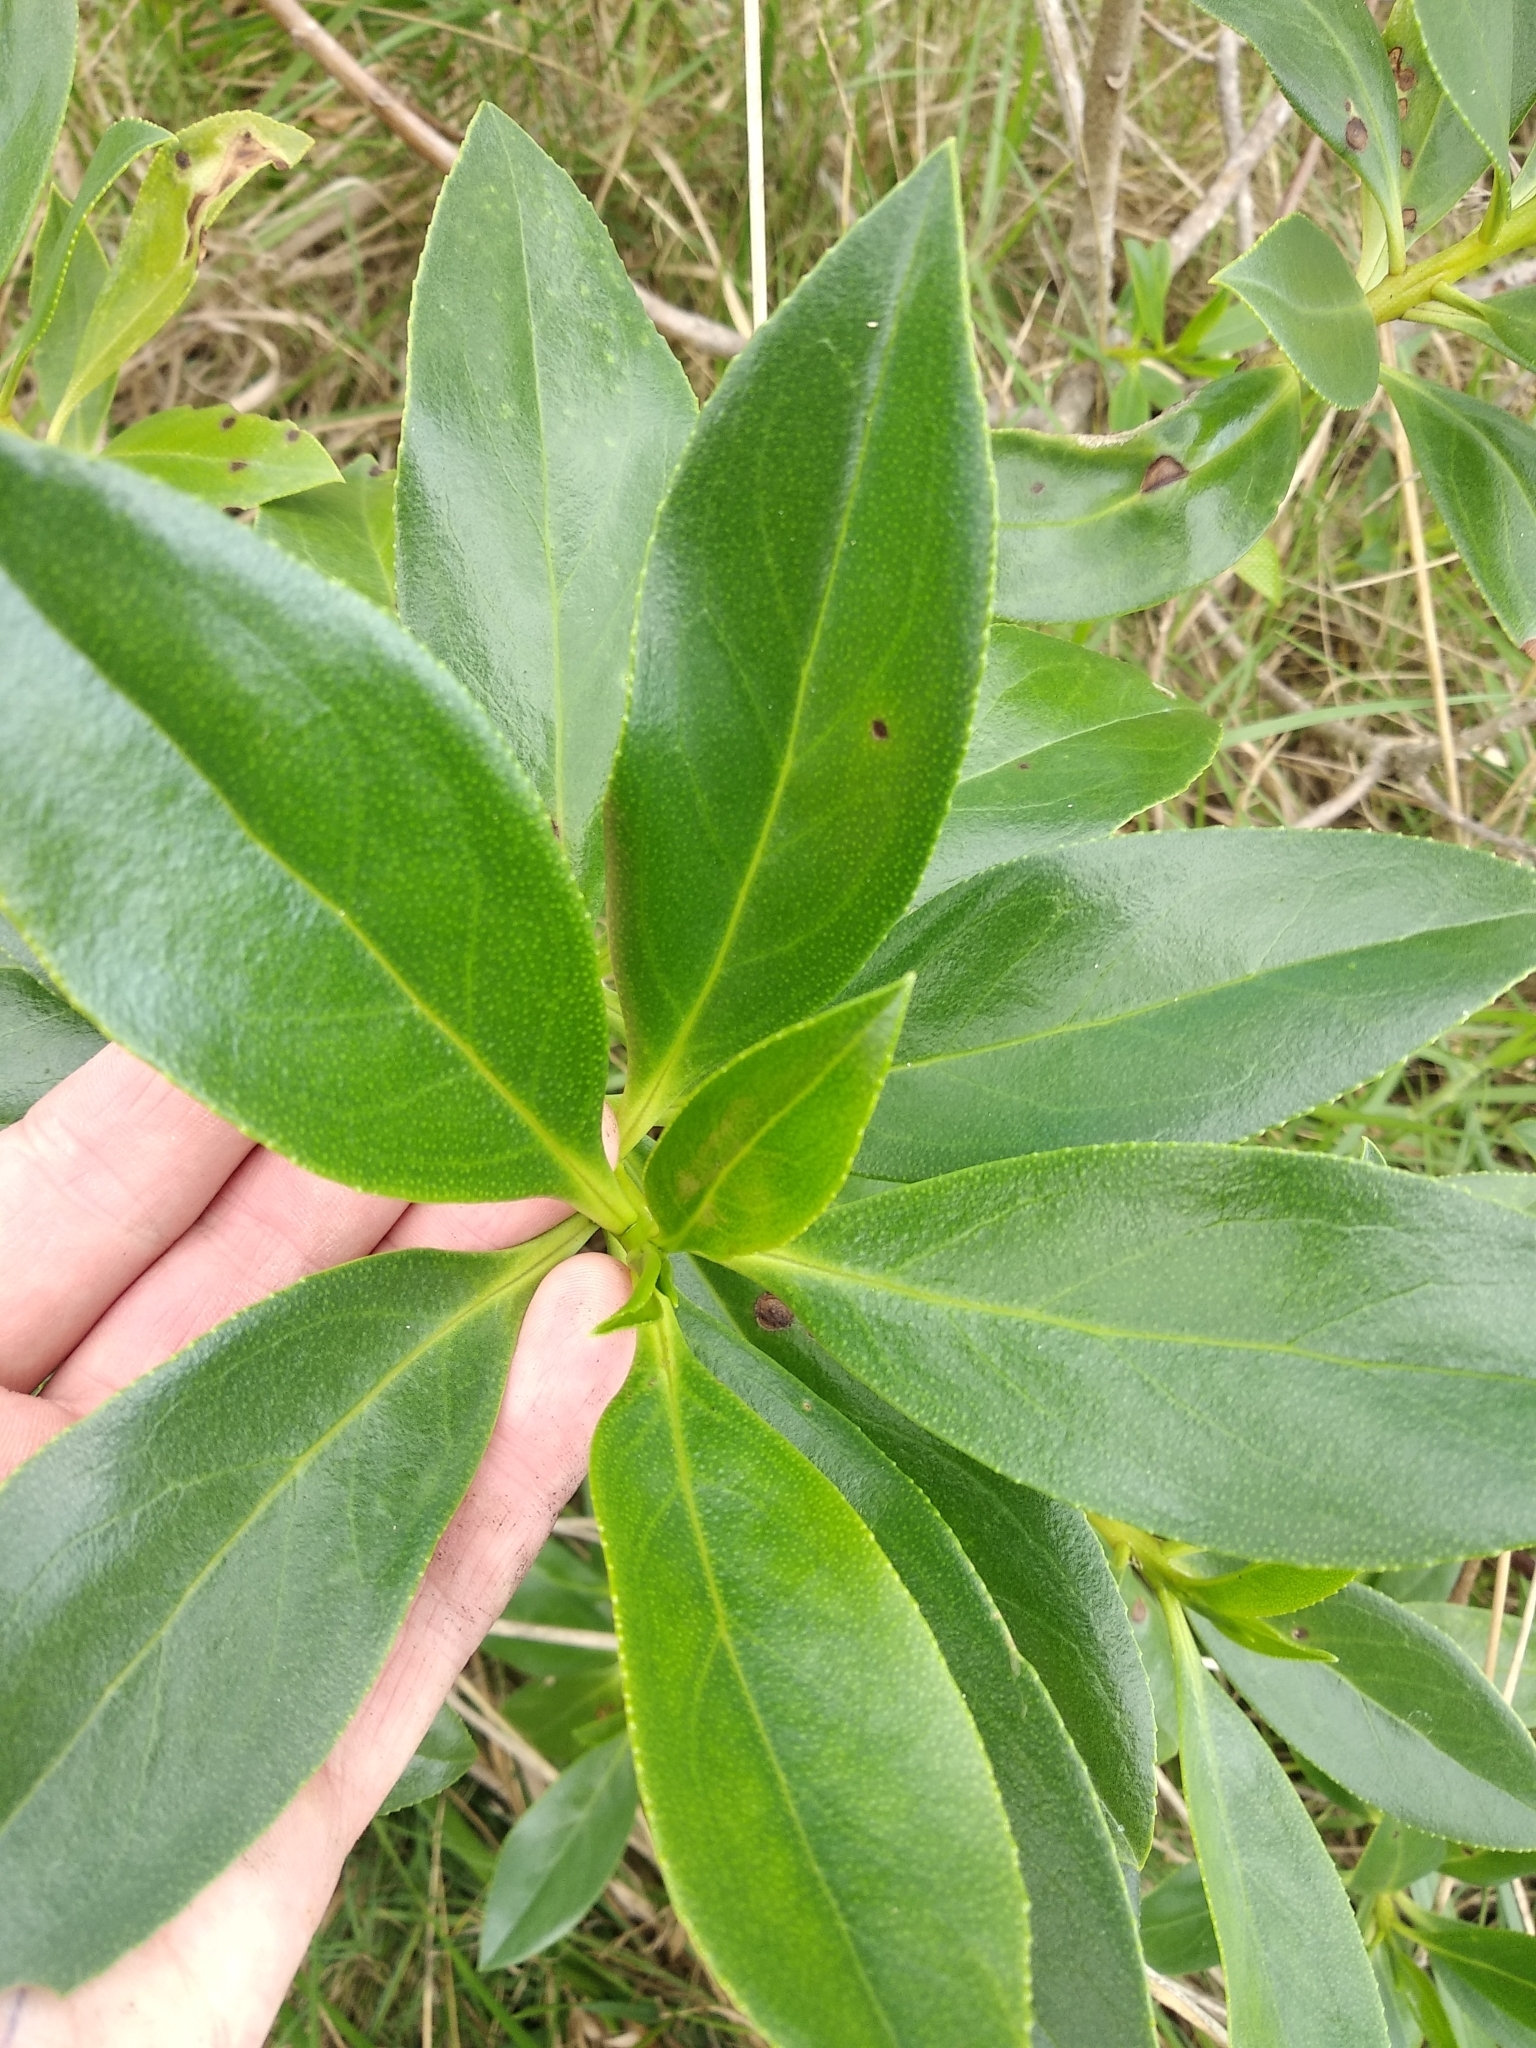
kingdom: Plantae
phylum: Tracheophyta
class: Magnoliopsida
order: Lamiales
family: Scrophulariaceae
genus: Myoporum
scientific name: Myoporum insulare
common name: Common boobialla
